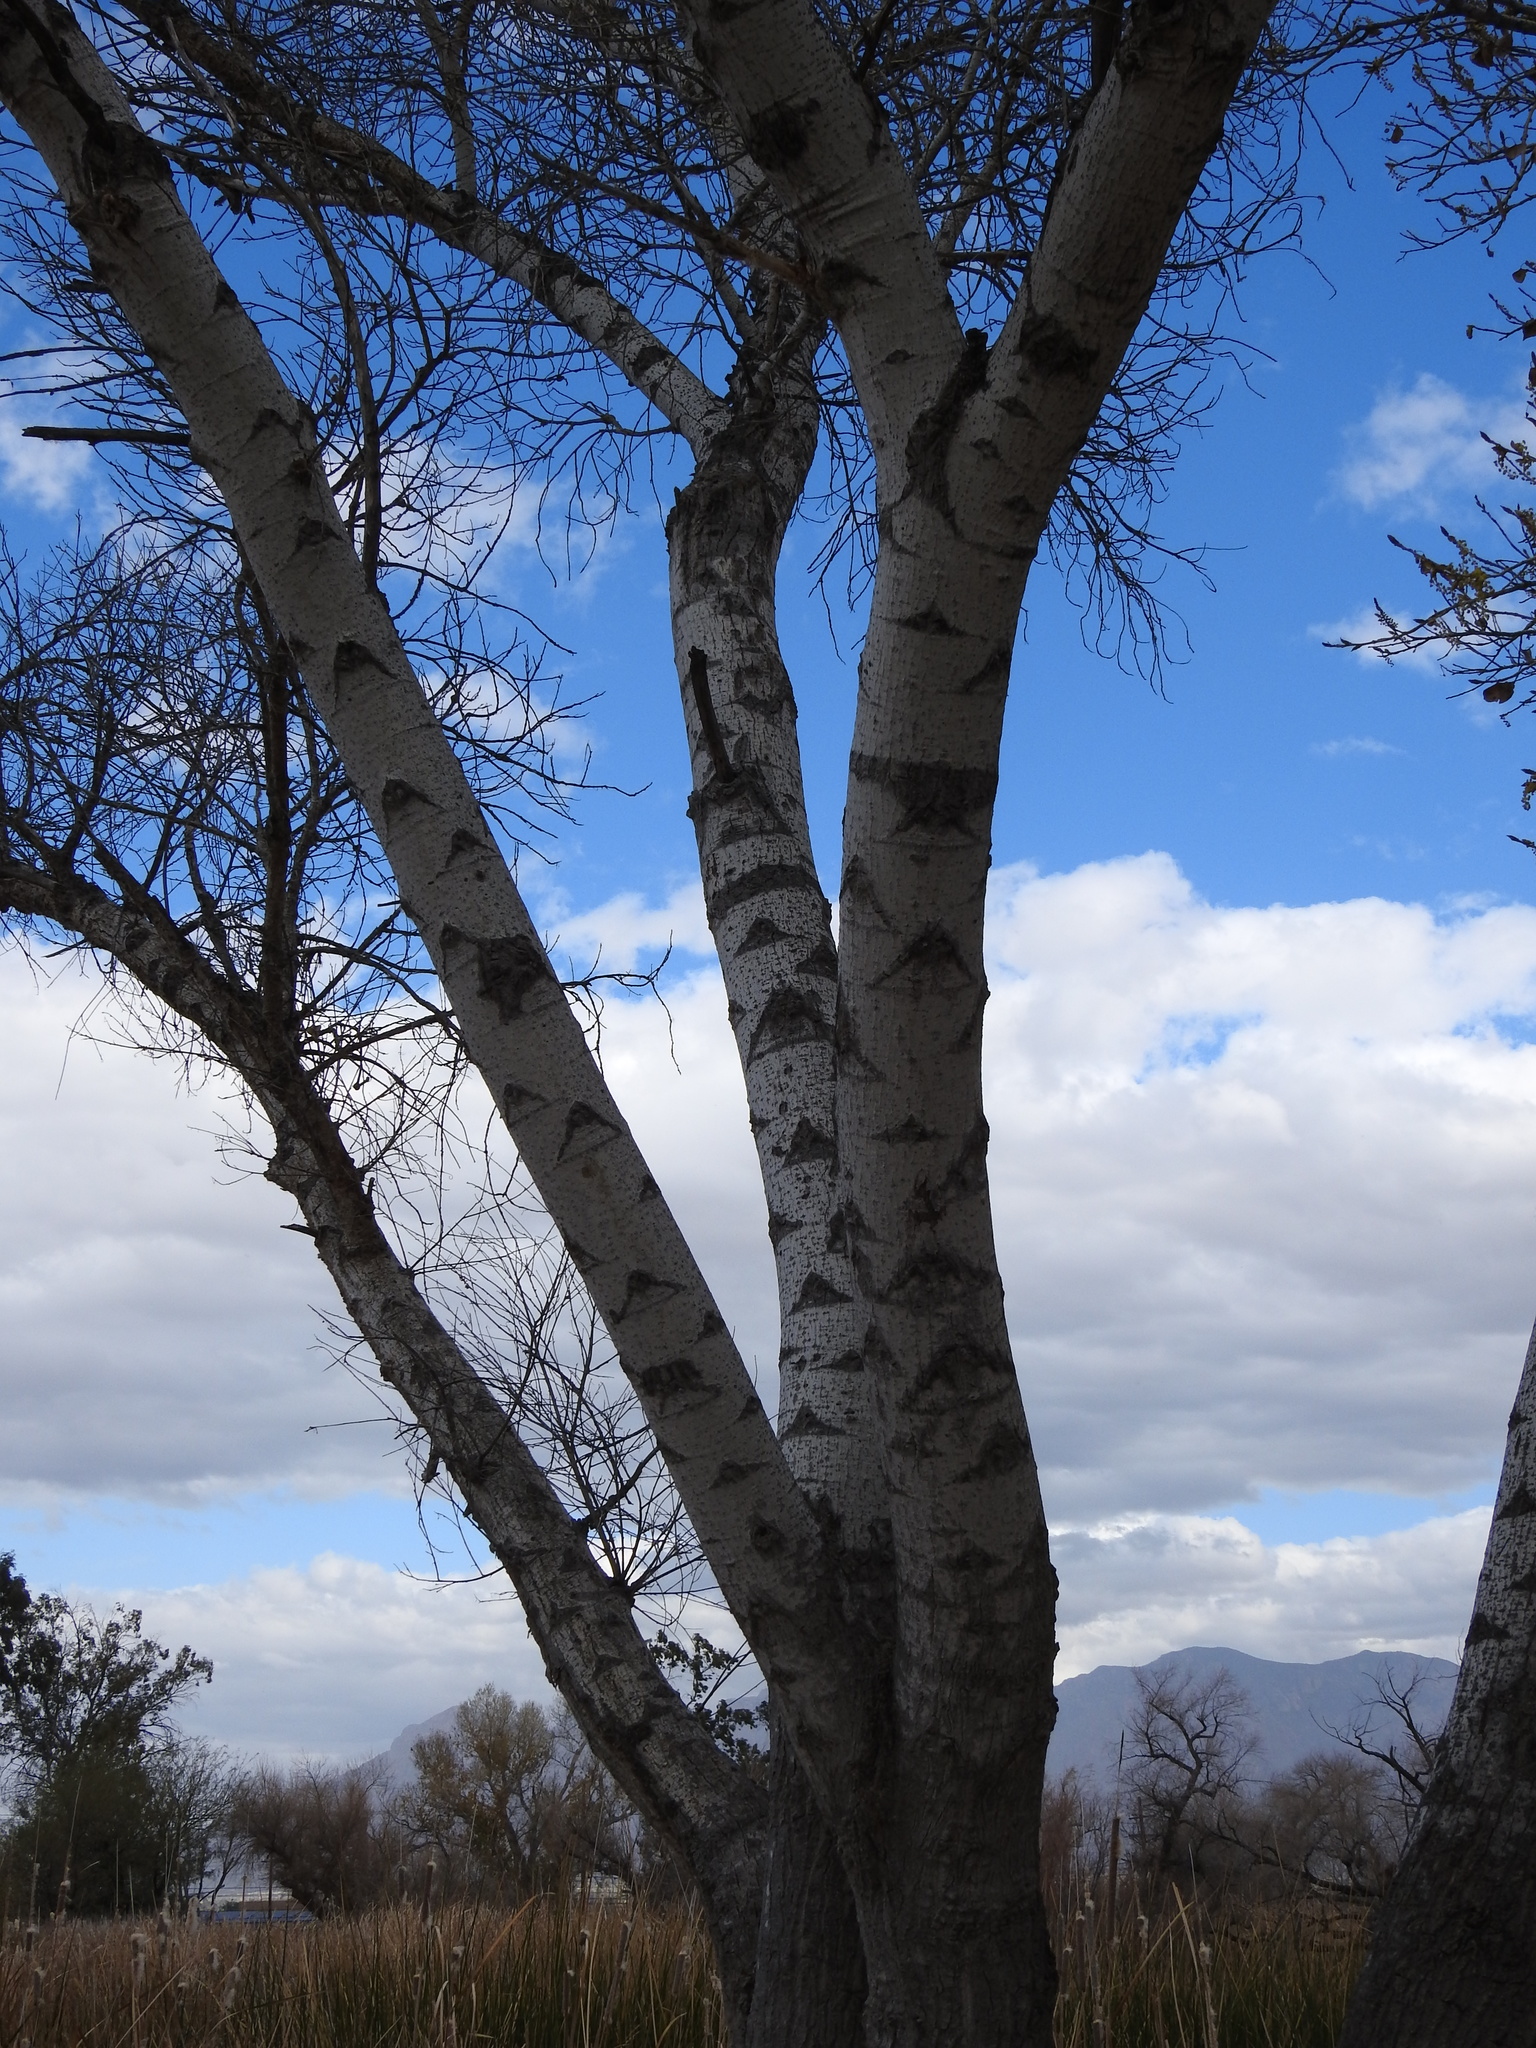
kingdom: Plantae
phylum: Tracheophyta
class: Magnoliopsida
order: Malpighiales
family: Salicaceae
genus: Populus
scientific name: Populus fremontii
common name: Fremont's cottonwood
